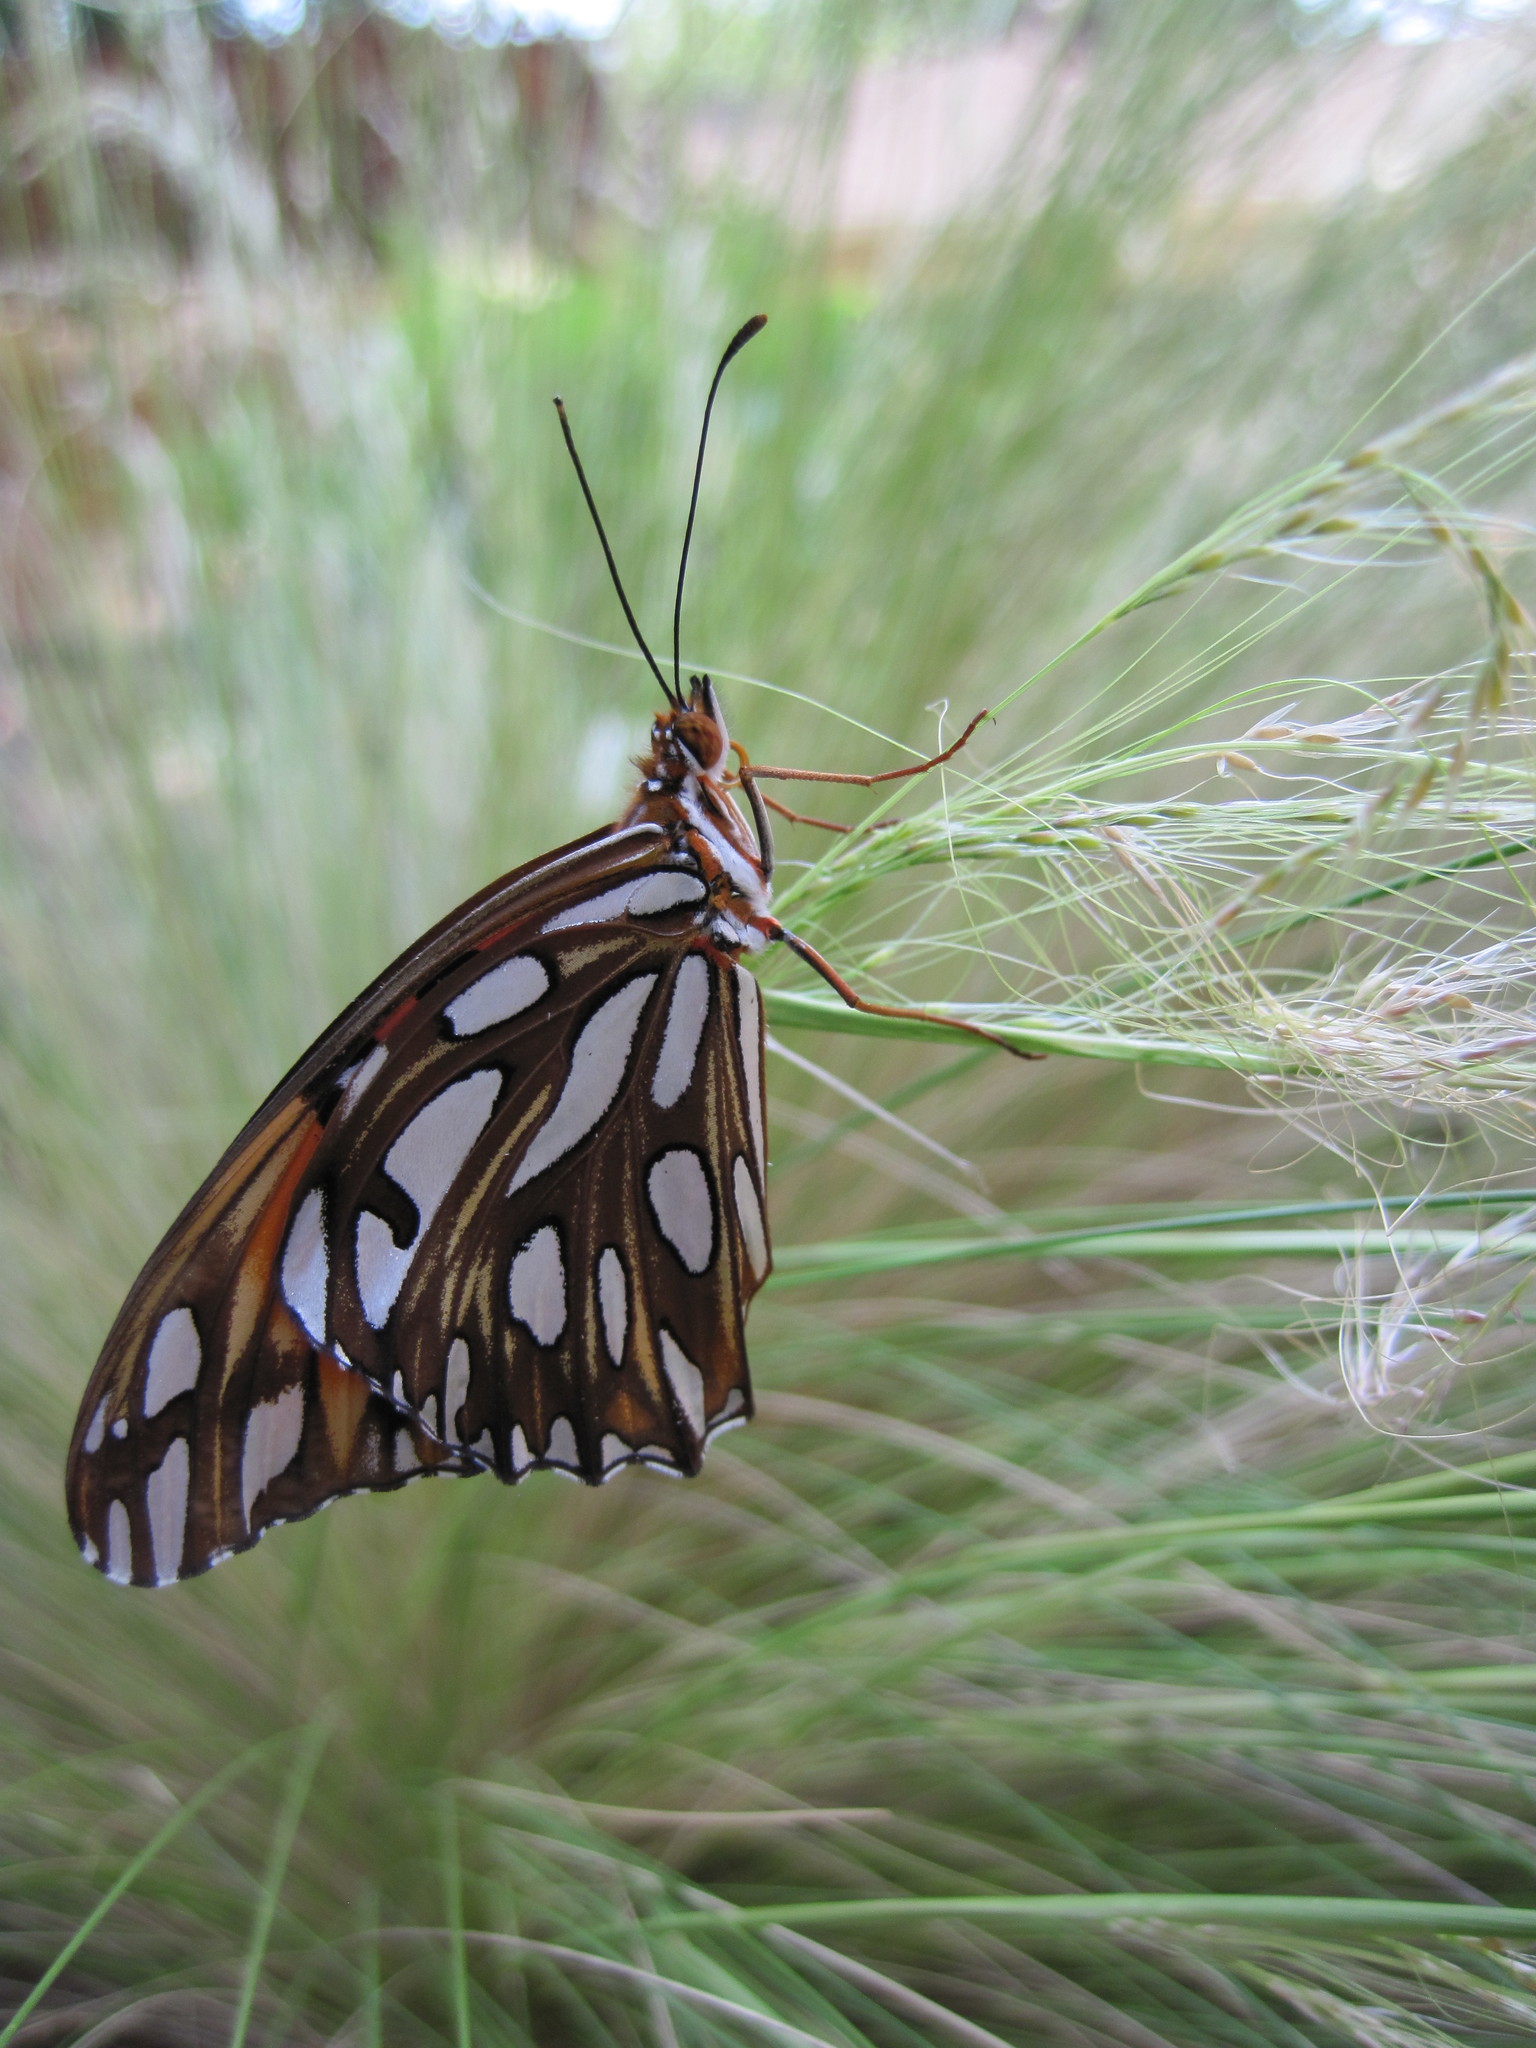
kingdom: Animalia
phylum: Arthropoda
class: Insecta
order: Lepidoptera
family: Nymphalidae
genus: Dione
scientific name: Dione vanillae
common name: Gulf fritillary
